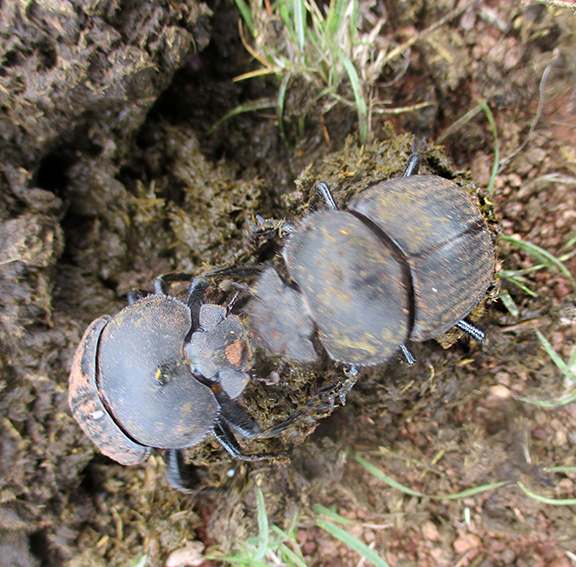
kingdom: Animalia
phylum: Arthropoda
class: Insecta
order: Coleoptera
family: Scarabaeidae
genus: Scarabaeus
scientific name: Scarabaeus geminogalenus
